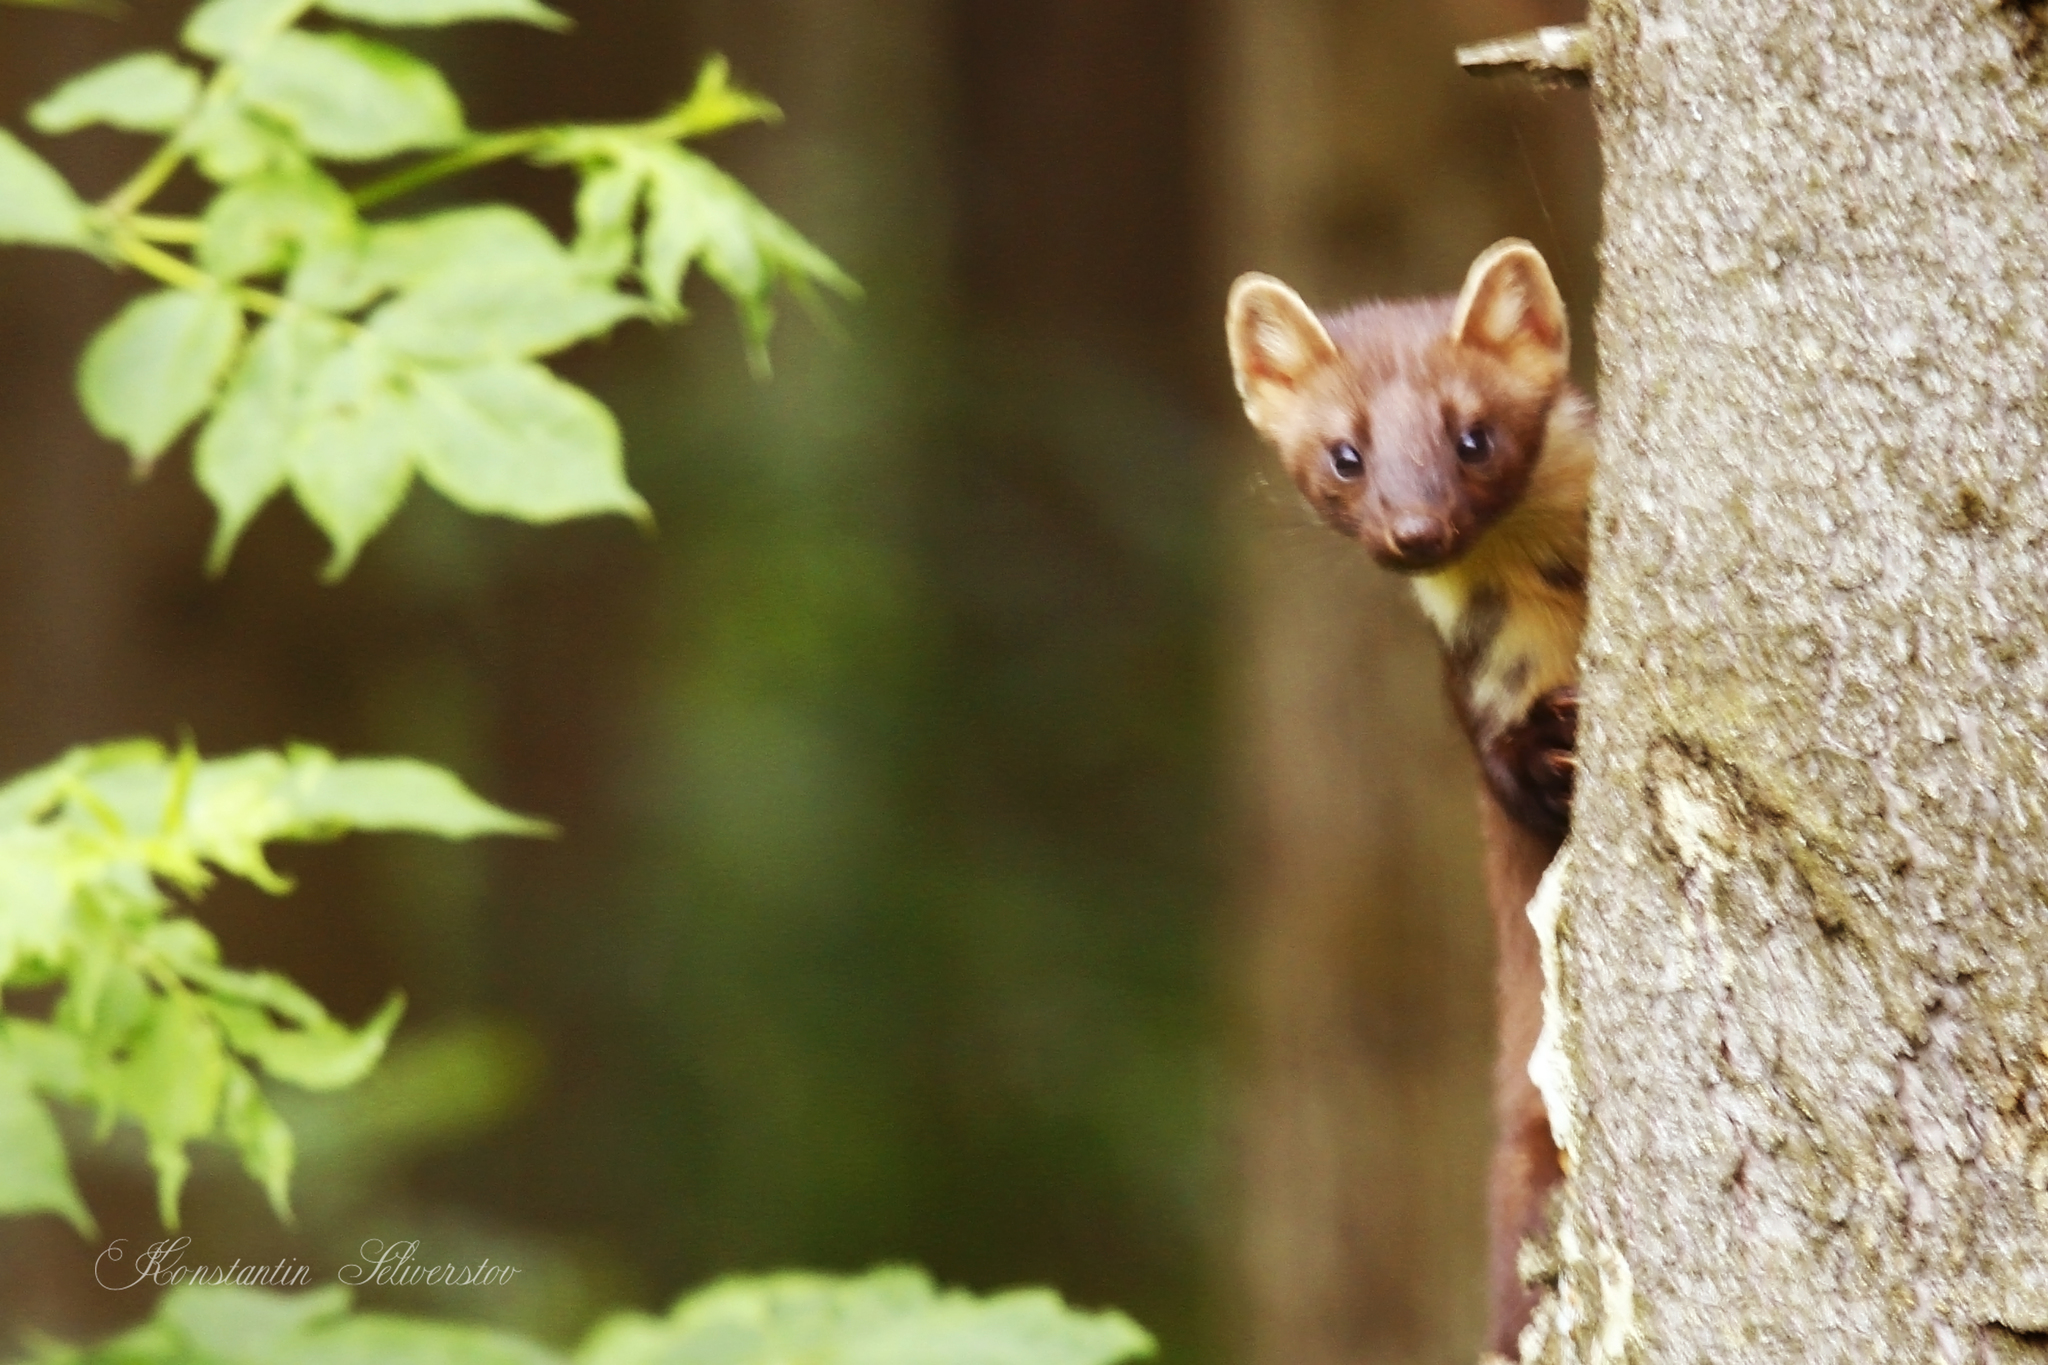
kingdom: Animalia
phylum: Chordata
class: Mammalia
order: Carnivora
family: Mustelidae
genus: Martes
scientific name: Martes martes
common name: European pine marten
